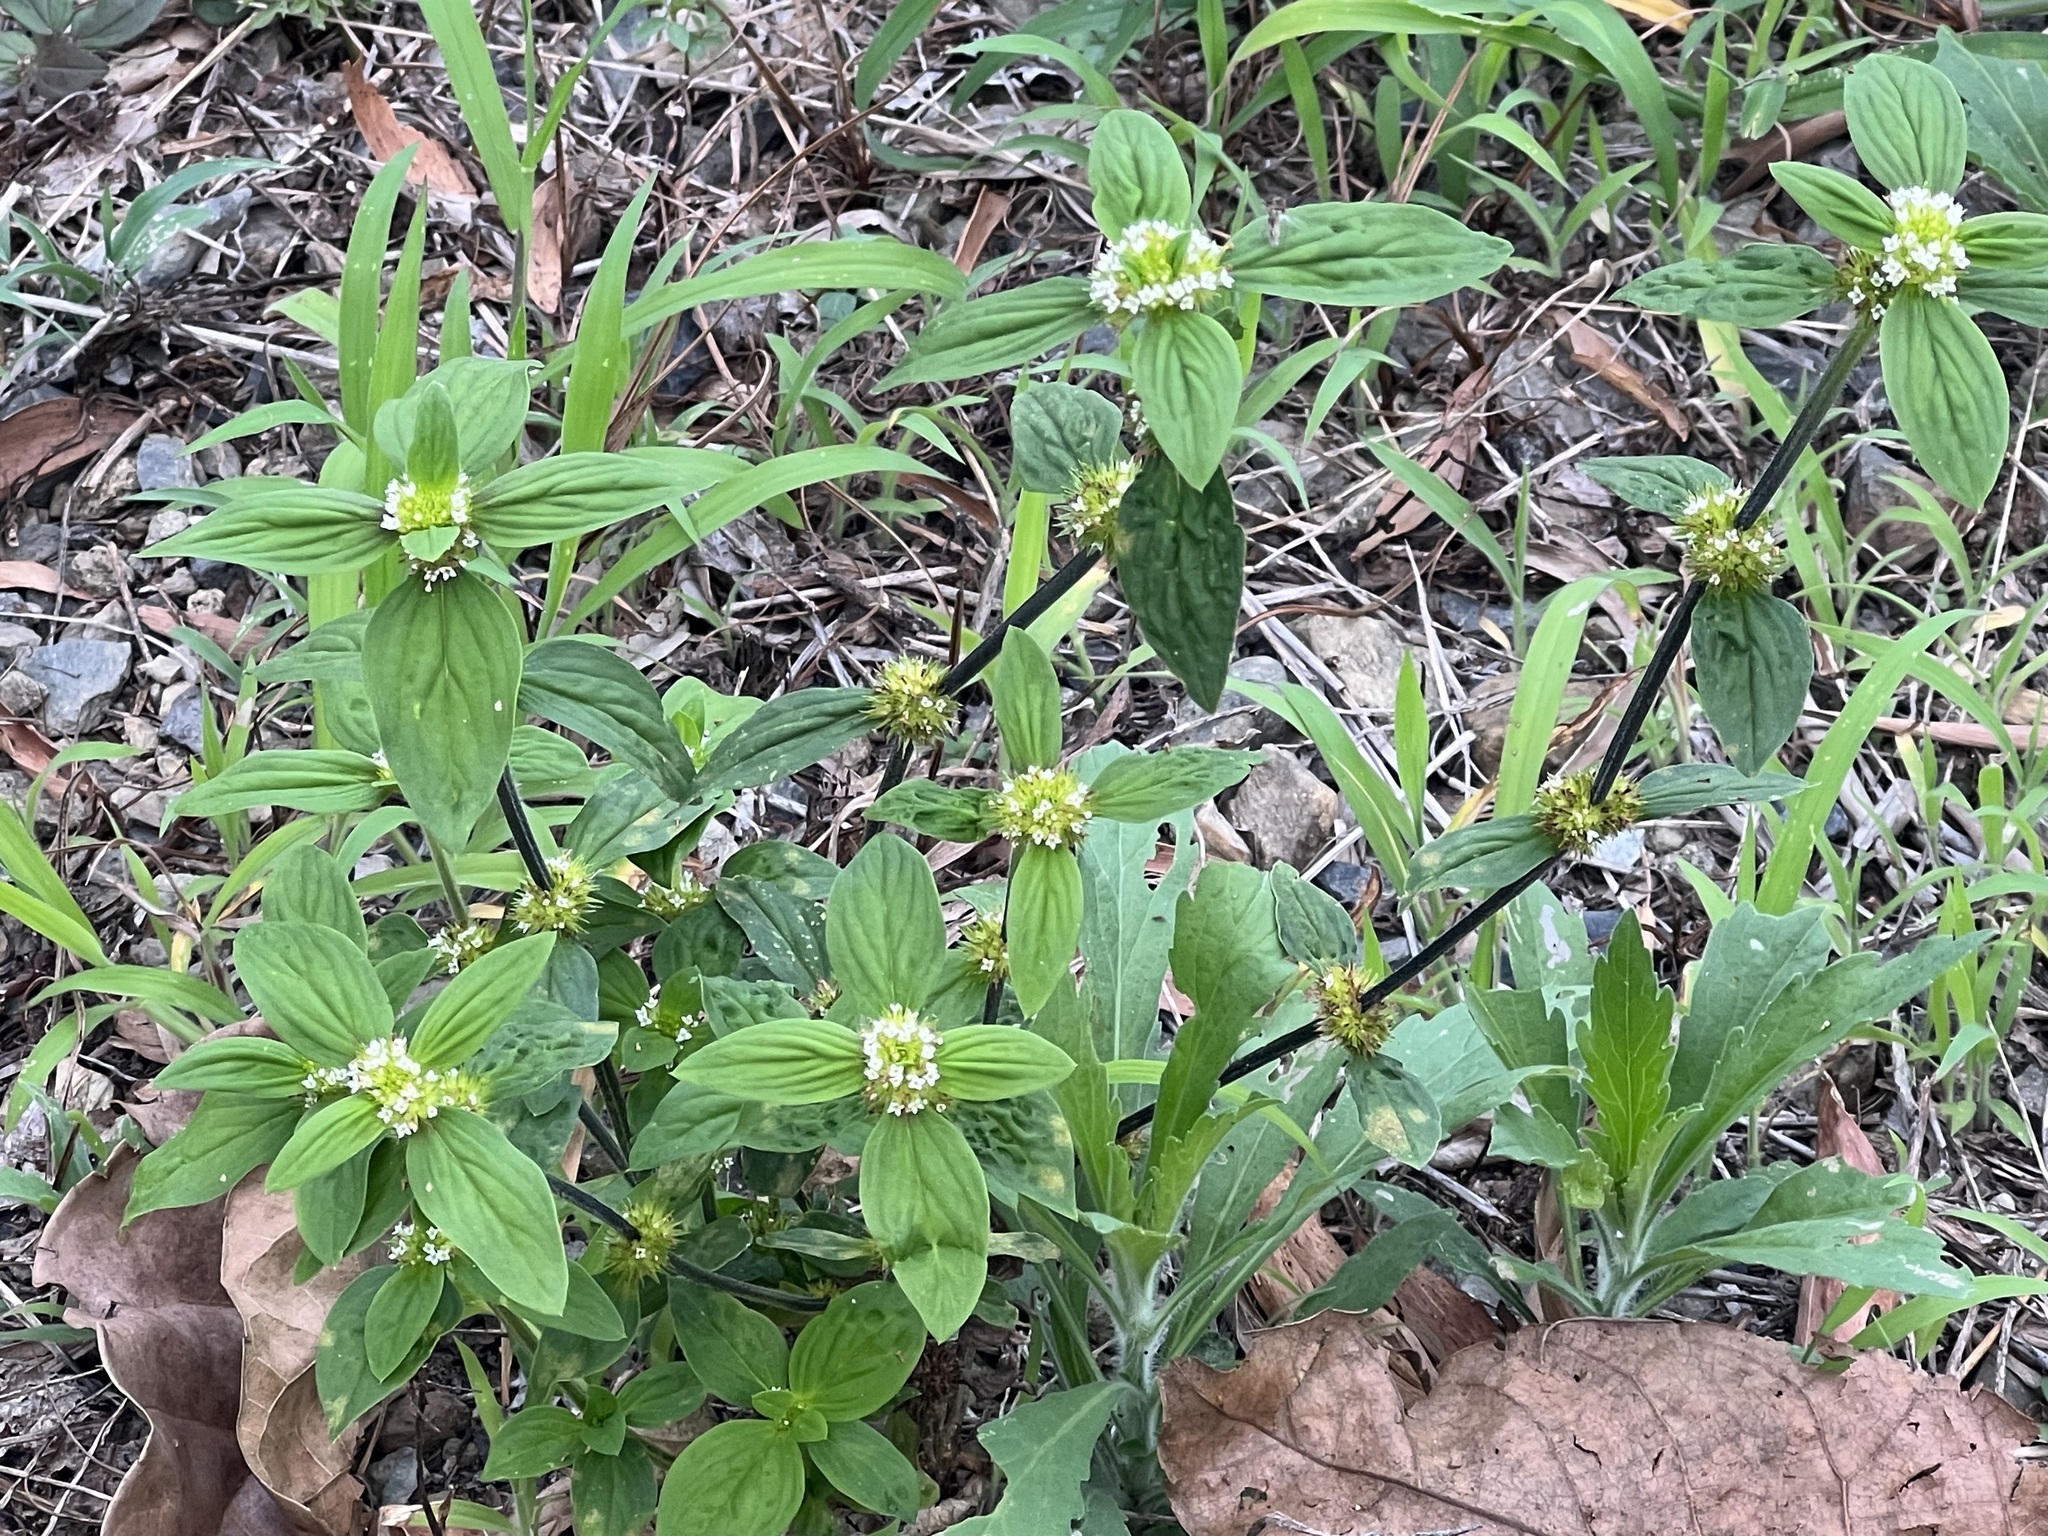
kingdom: Plantae
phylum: Tracheophyta
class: Magnoliopsida
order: Gentianales
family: Rubiaceae
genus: Mitracarpus
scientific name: Mitracarpus hirtus
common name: Tropical girdlepod
